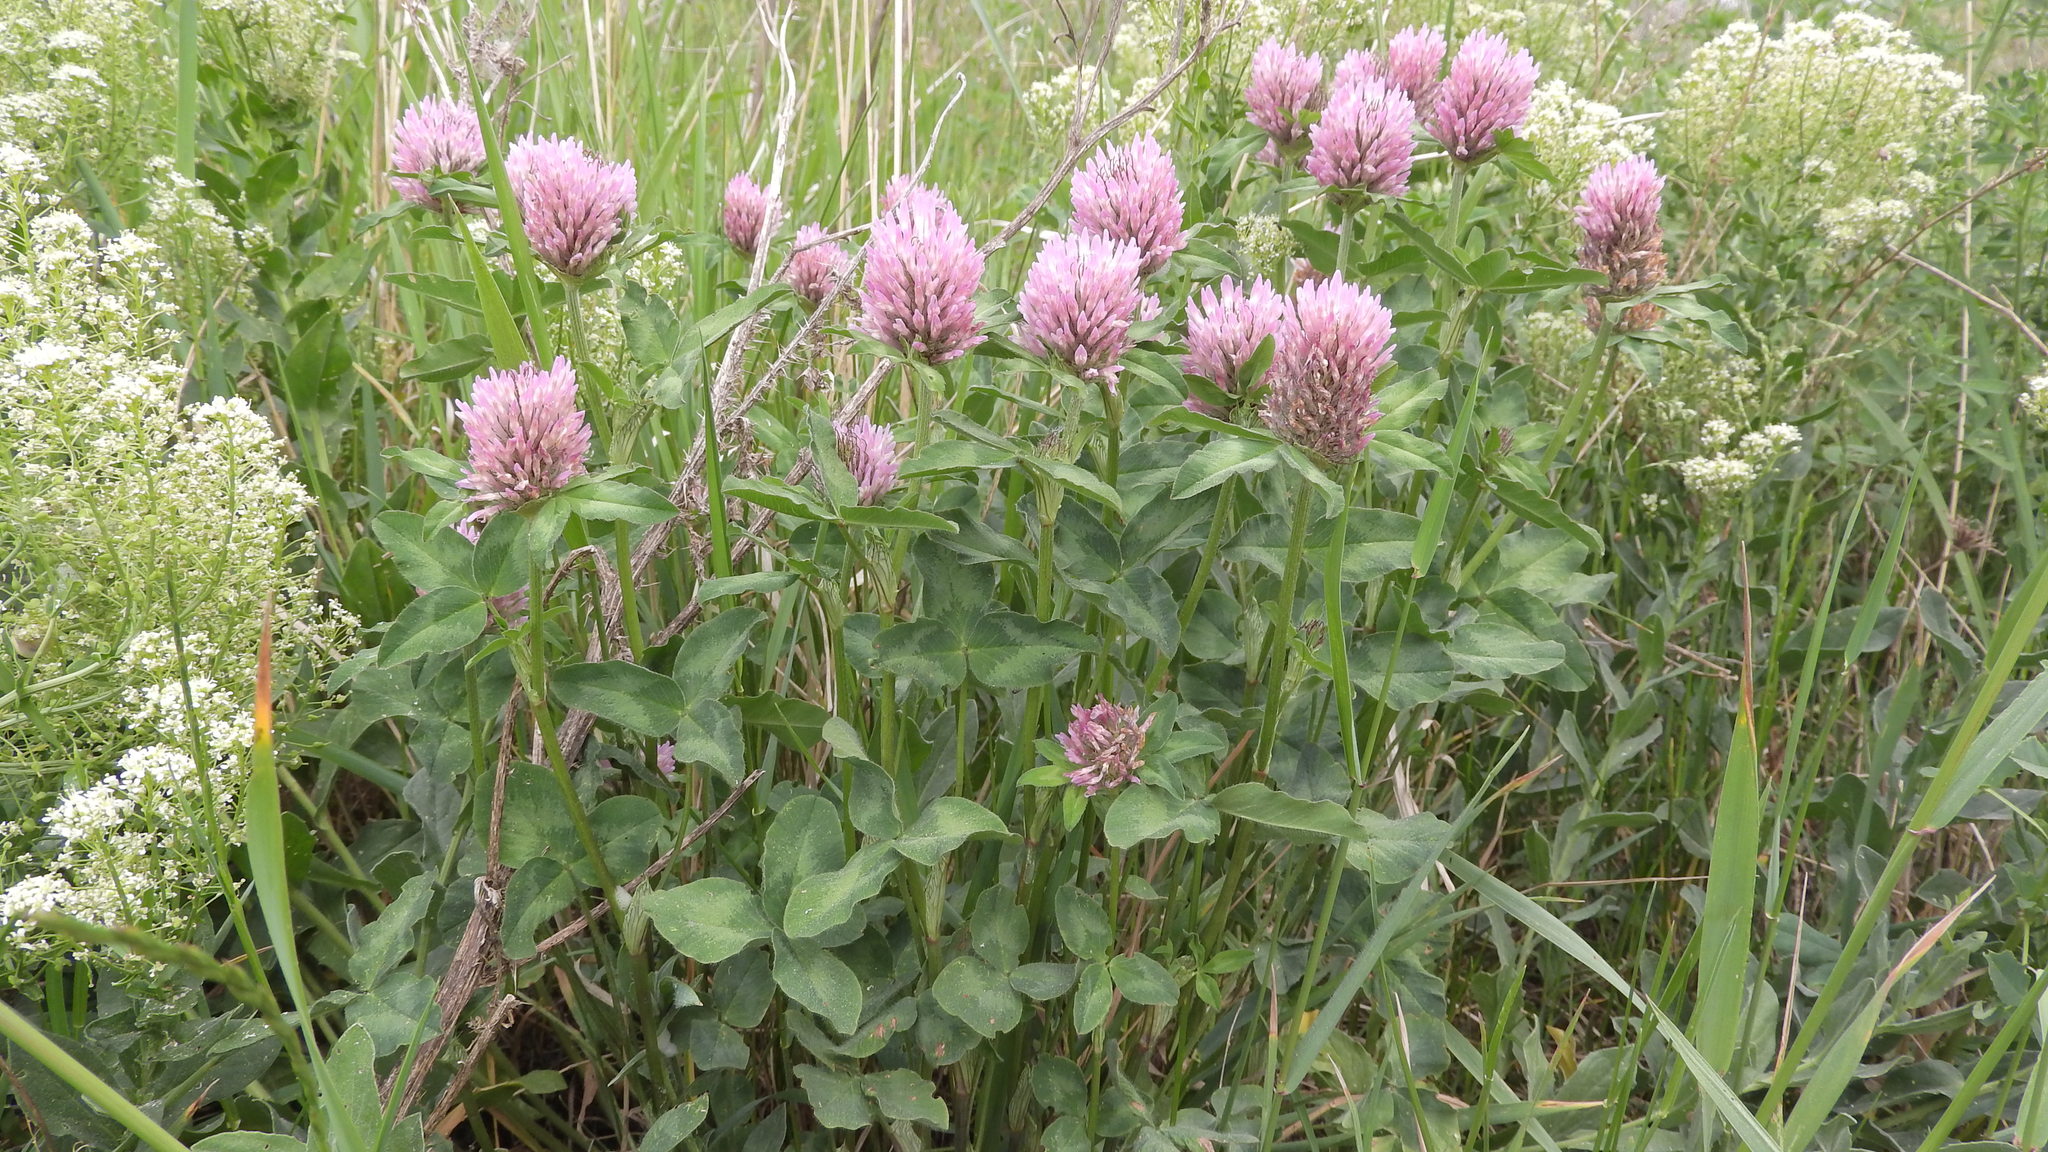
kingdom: Plantae
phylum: Tracheophyta
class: Magnoliopsida
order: Fabales
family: Fabaceae
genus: Trifolium
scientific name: Trifolium pratense
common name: Red clover
